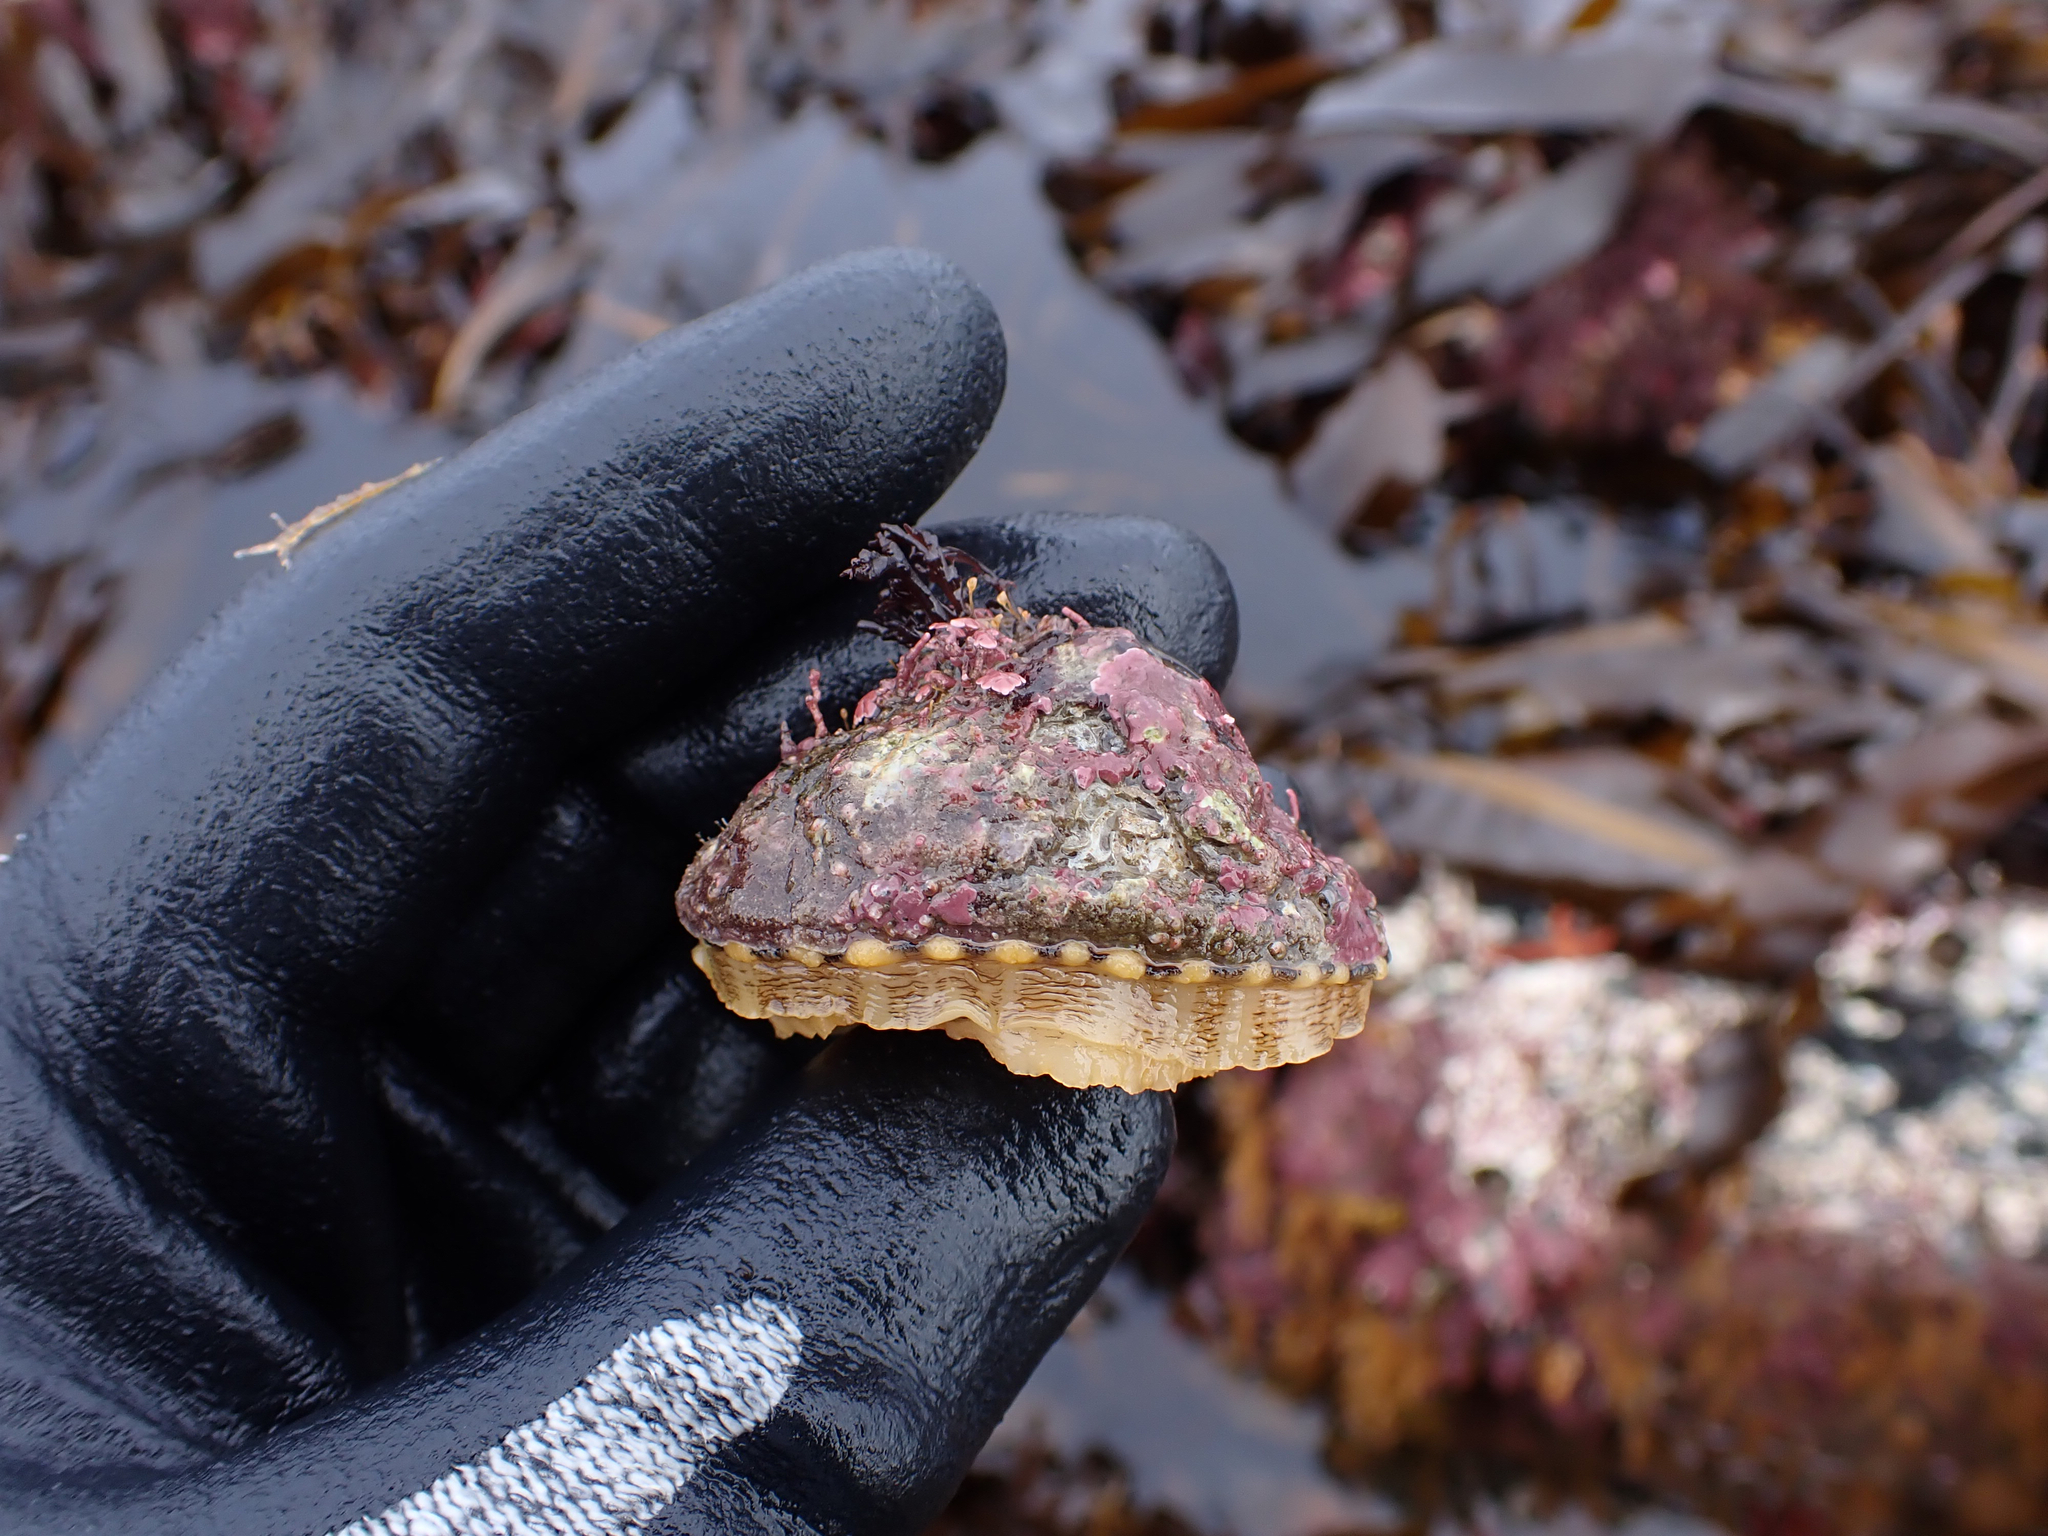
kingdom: Animalia
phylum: Mollusca
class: Gastropoda
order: Lepetellida
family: Fissurellidae
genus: Diodora
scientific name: Diodora aspera
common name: Rough keyhole limpet
